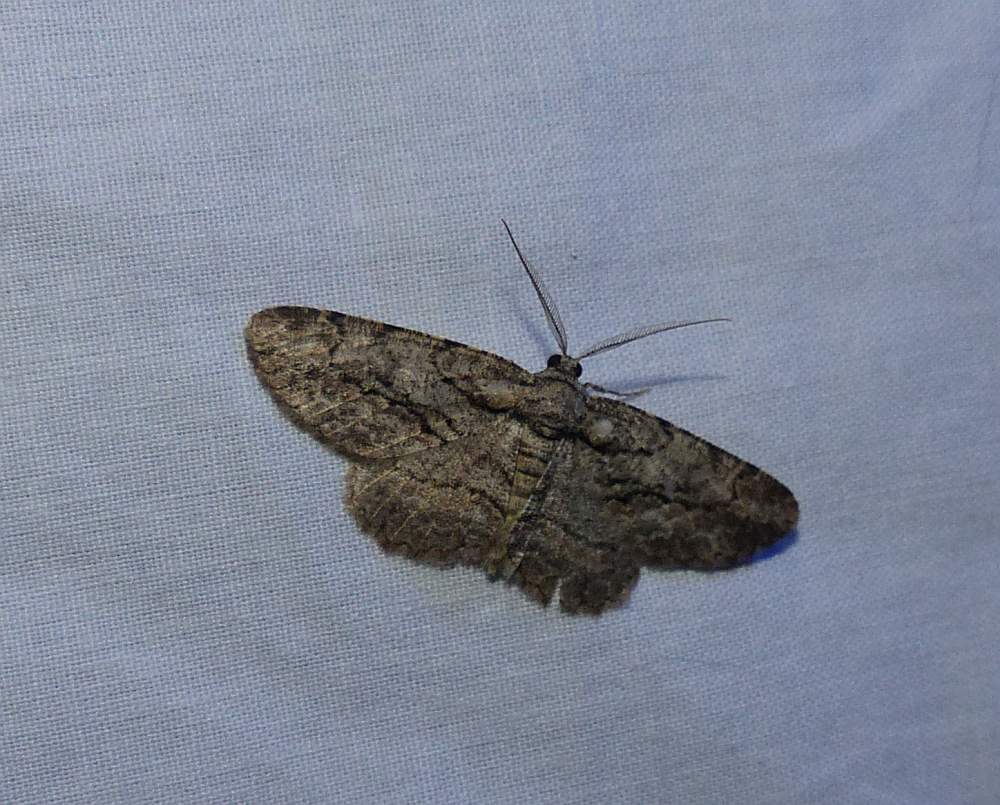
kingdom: Animalia
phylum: Arthropoda
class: Insecta
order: Lepidoptera
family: Geometridae
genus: Anavitrinella
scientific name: Anavitrinella pampinaria
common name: Common gray
